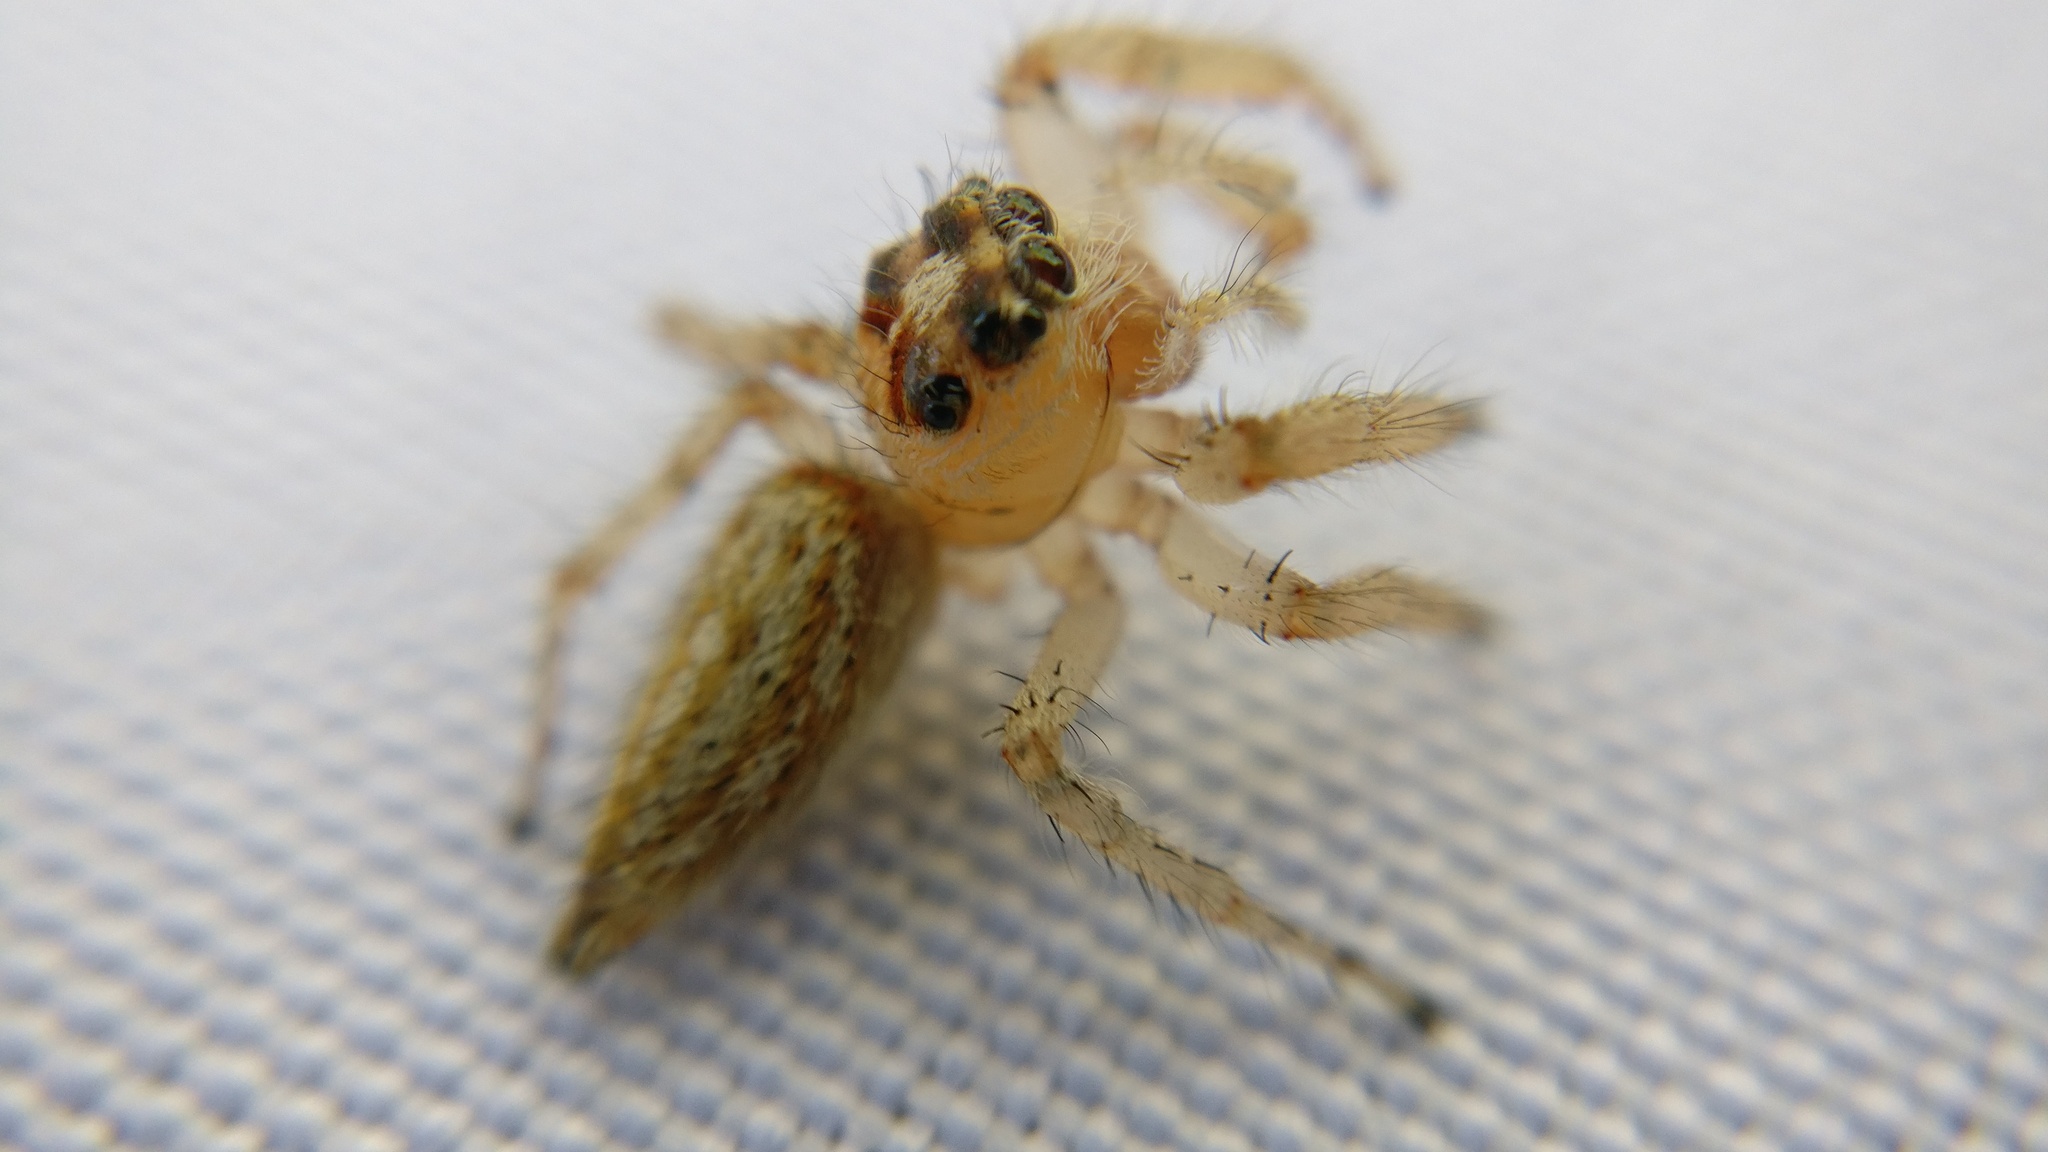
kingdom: Animalia
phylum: Arthropoda
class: Arachnida
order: Araneae
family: Salticidae
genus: Colonus
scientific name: Colonus hesperus
